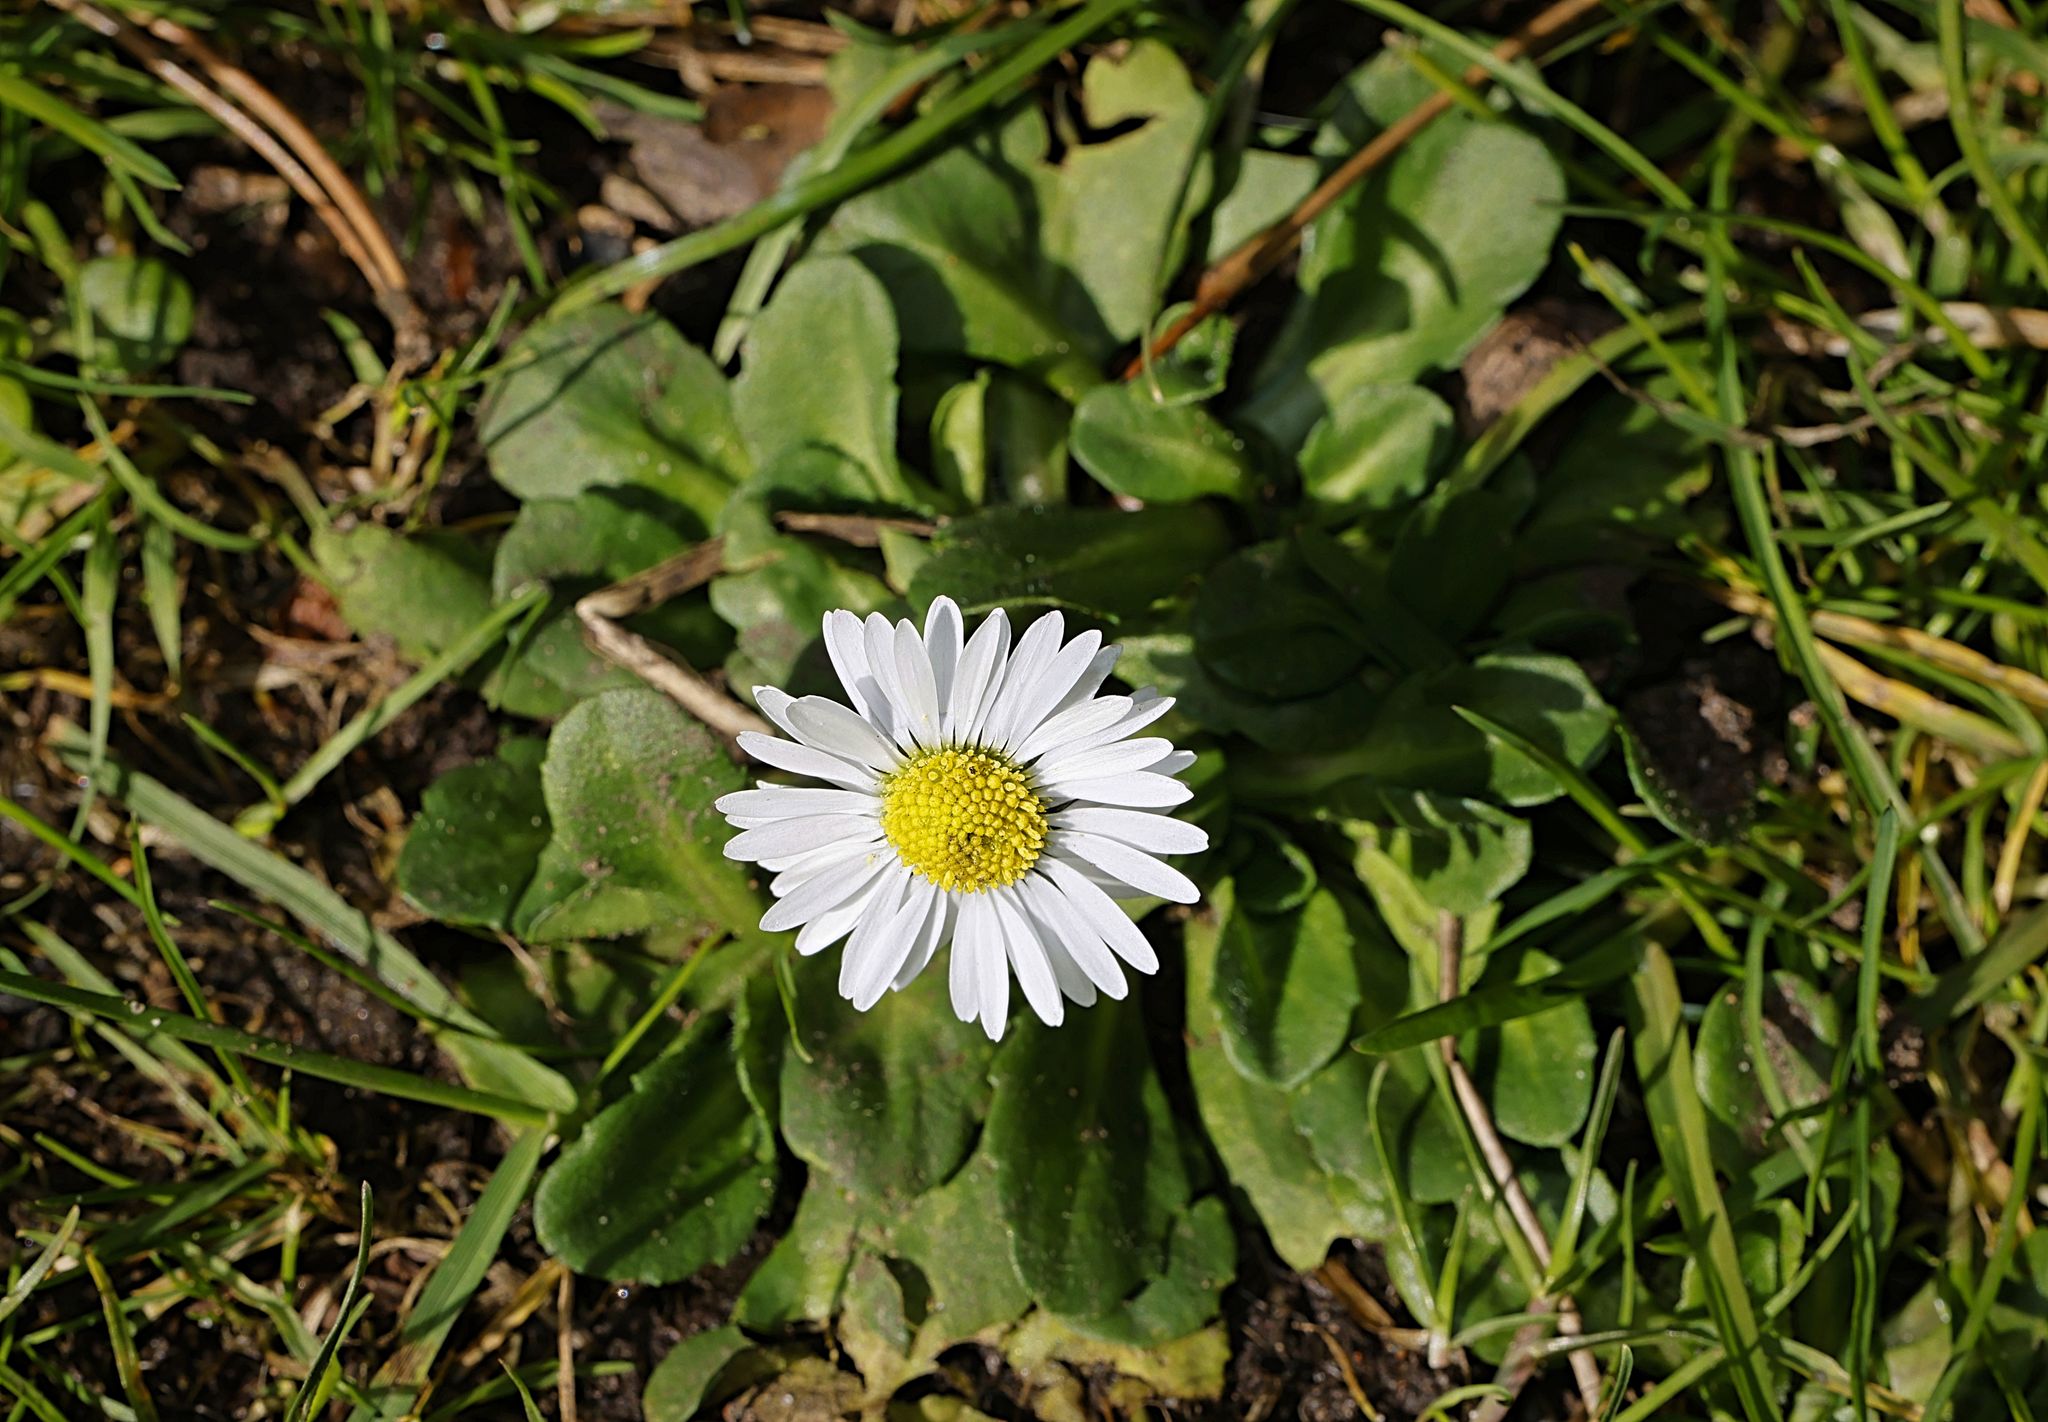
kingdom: Plantae
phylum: Tracheophyta
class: Magnoliopsida
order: Asterales
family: Asteraceae
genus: Bellis
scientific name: Bellis perennis
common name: Lawndaisy
